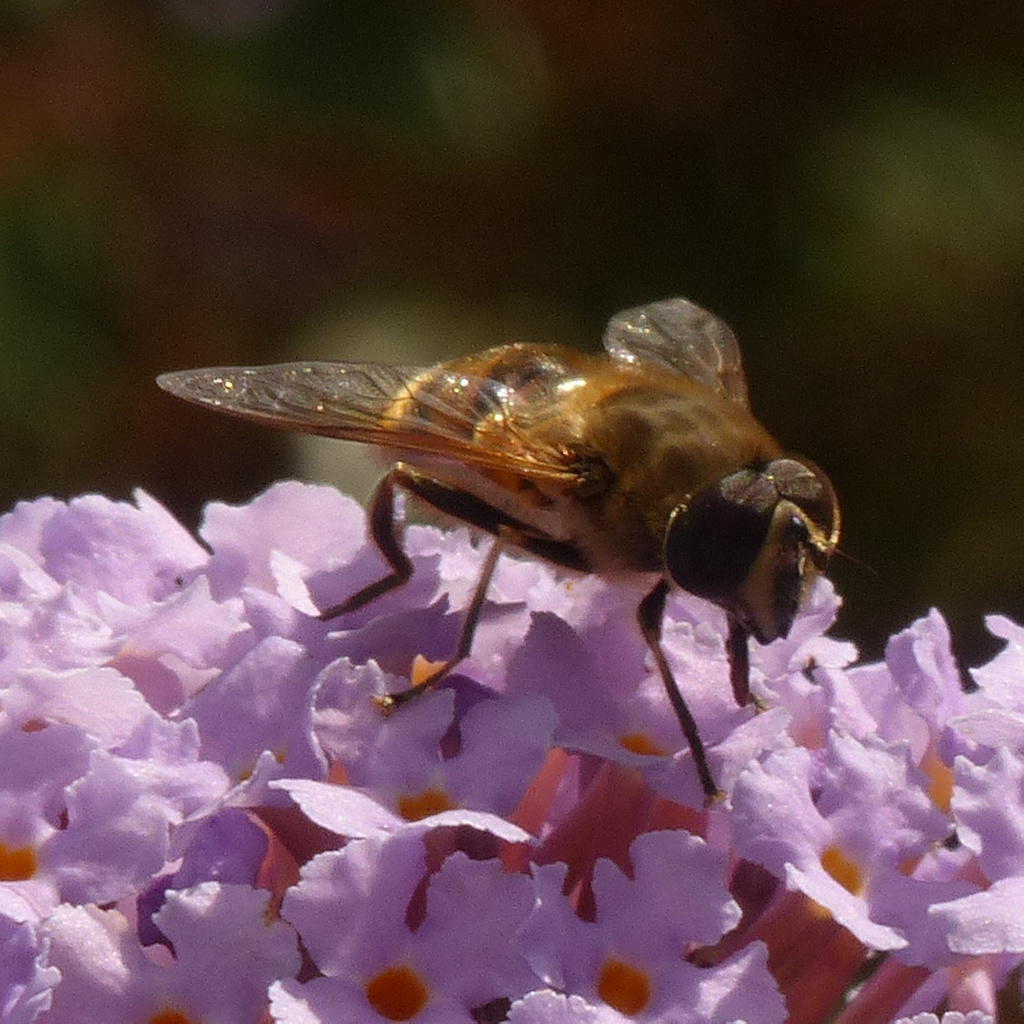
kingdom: Animalia
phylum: Arthropoda
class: Insecta
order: Diptera
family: Syrphidae
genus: Eristalis
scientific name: Eristalis tenax
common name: Drone fly
